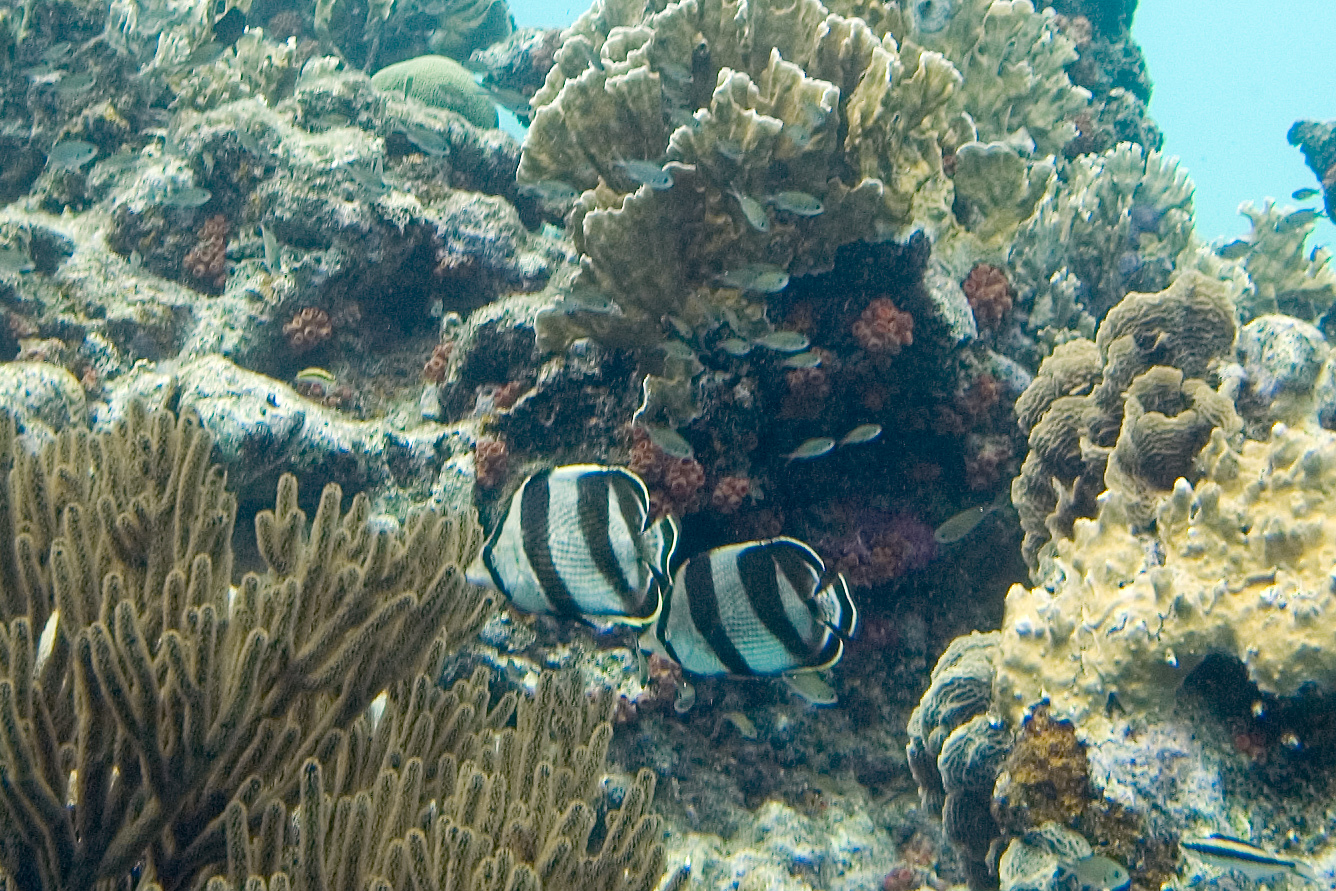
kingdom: Animalia
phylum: Chordata
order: Perciformes
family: Chaetodontidae
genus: Chaetodon
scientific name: Chaetodon striatus
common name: Banded butterflyfish
